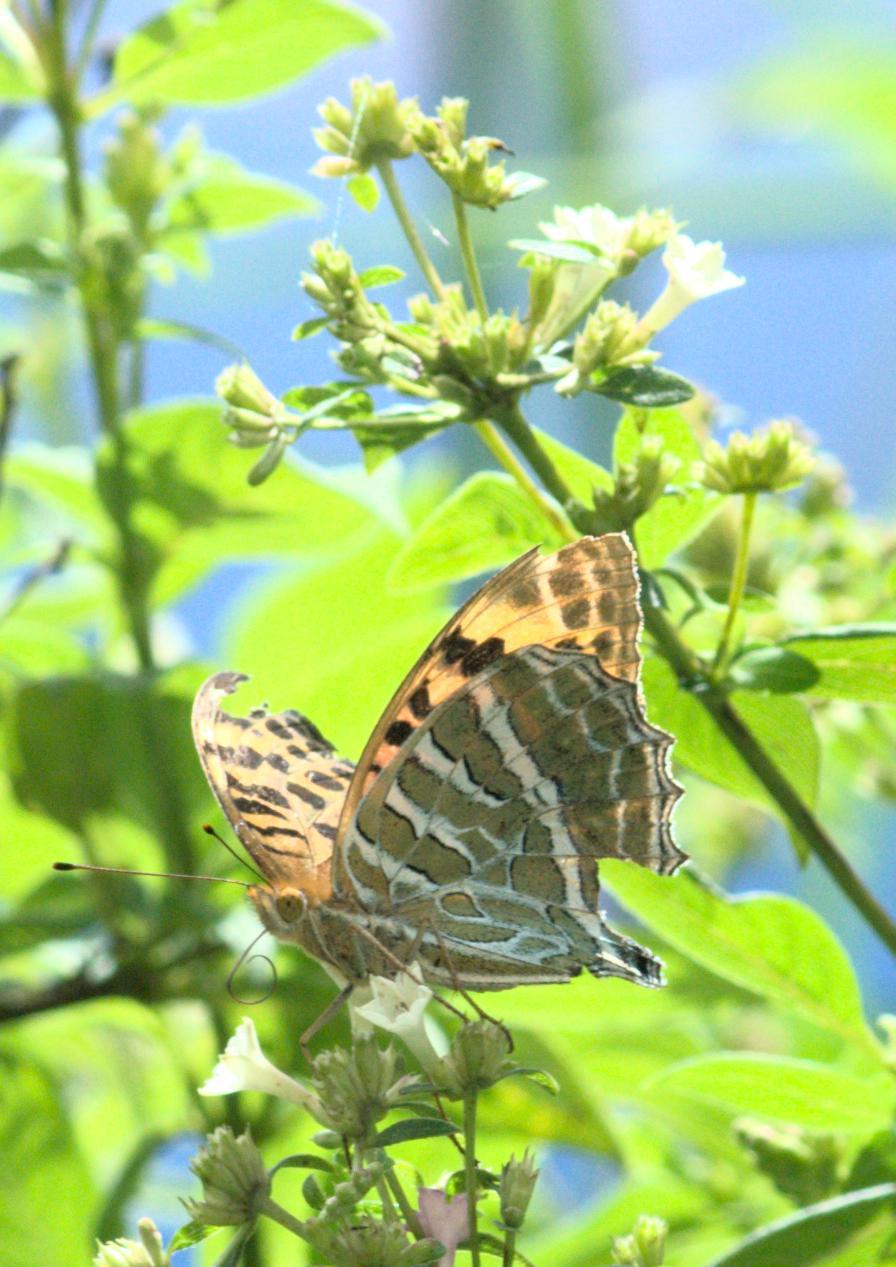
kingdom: Animalia
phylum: Arthropoda
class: Insecta
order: Lepidoptera
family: Nymphalidae
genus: Childrena
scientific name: Childrena childreni
